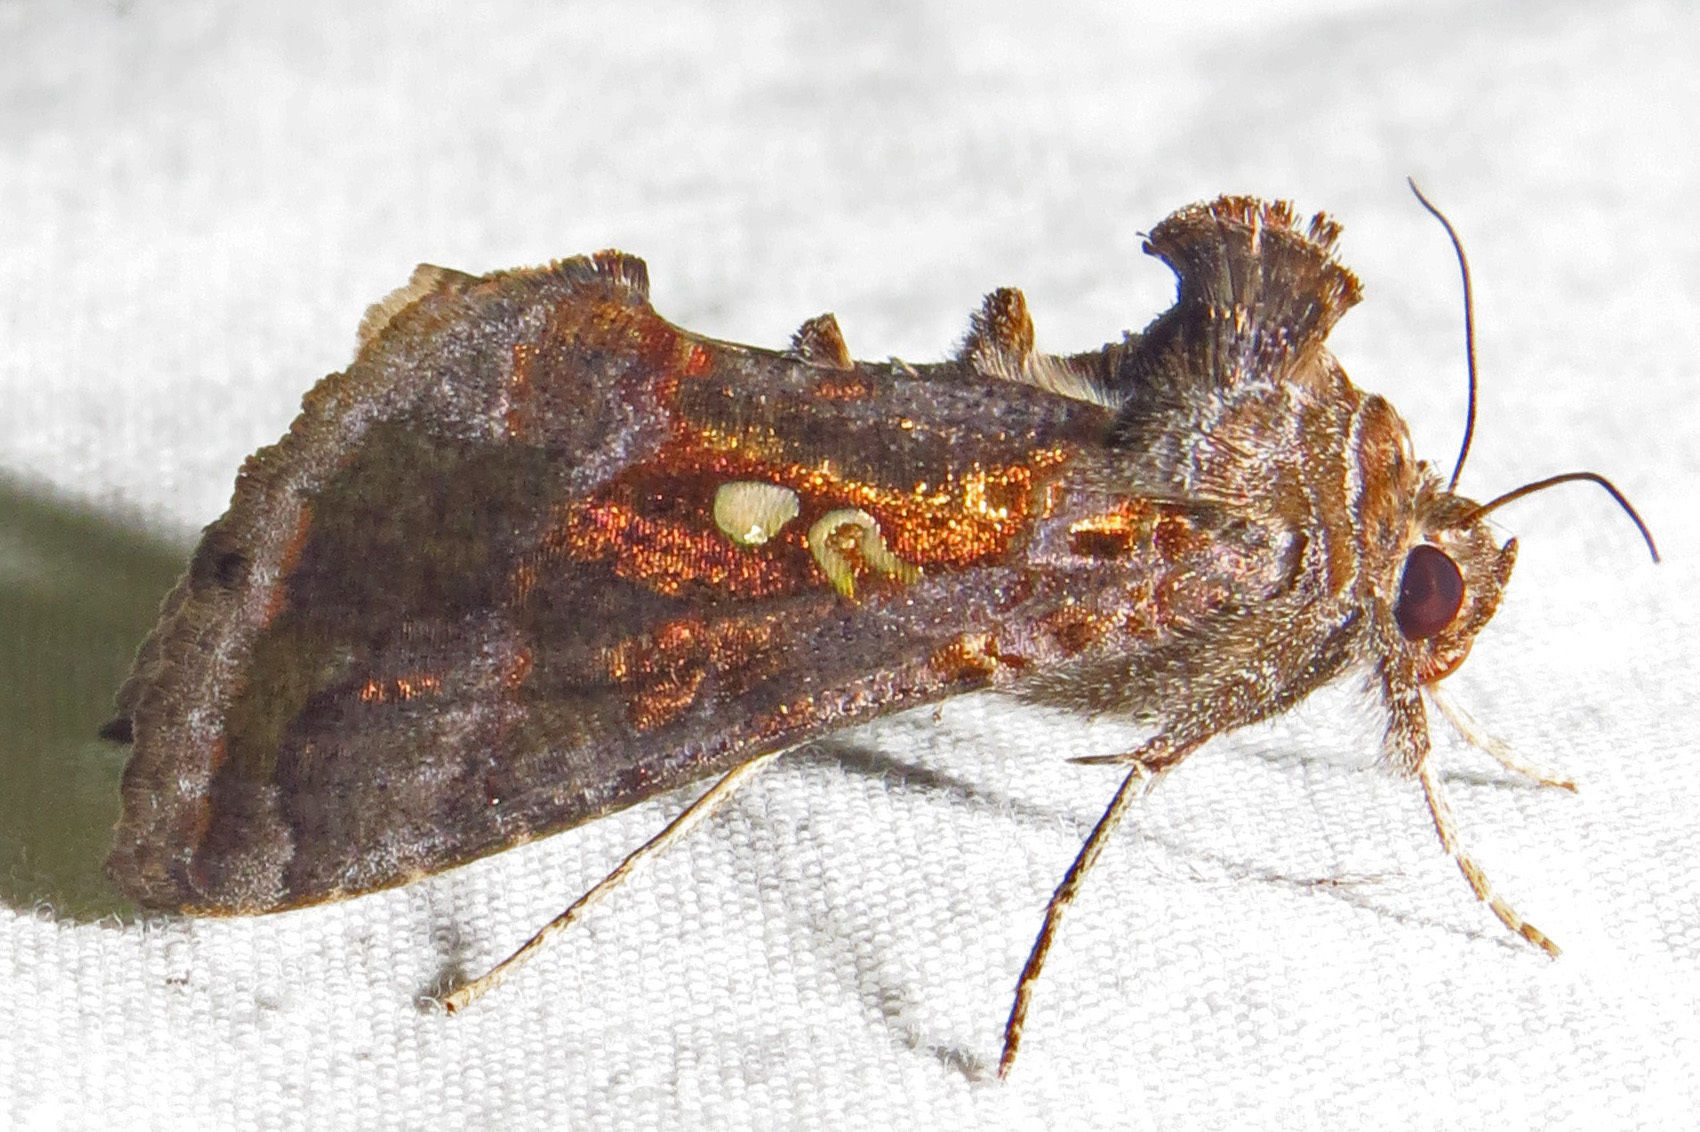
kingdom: Animalia
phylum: Arthropoda
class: Insecta
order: Lepidoptera
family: Noctuidae
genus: Chrysodeixis
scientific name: Chrysodeixis includens
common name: Cutworm moth
